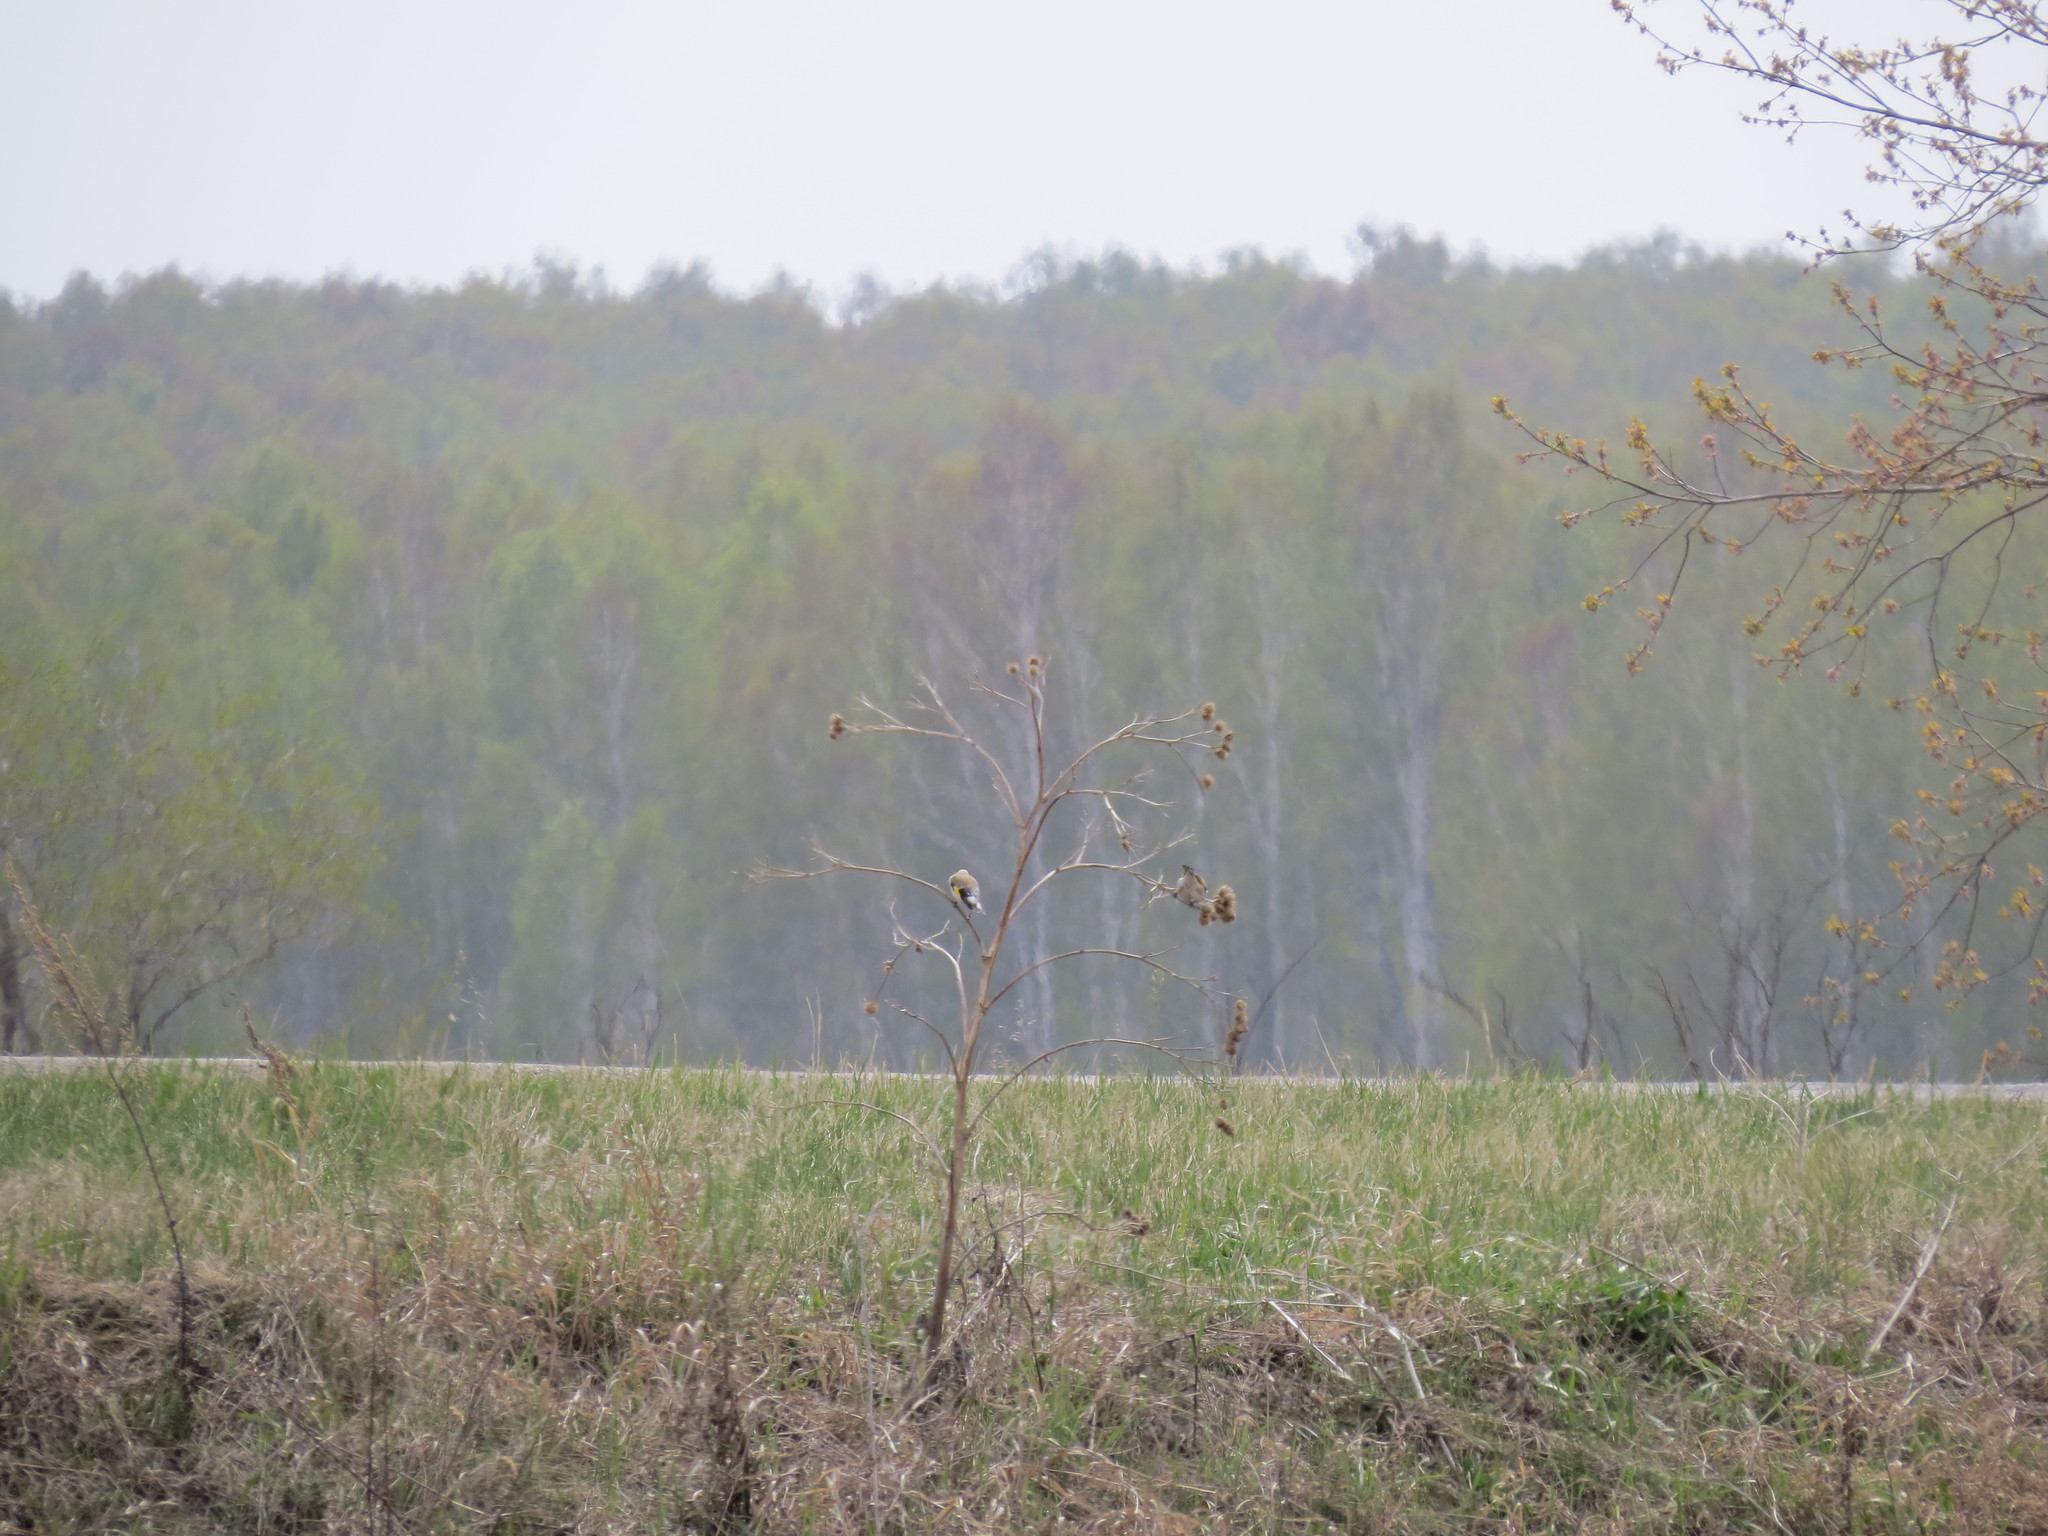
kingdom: Animalia
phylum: Chordata
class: Aves
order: Passeriformes
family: Fringillidae
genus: Carduelis
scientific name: Carduelis carduelis
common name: European goldfinch
